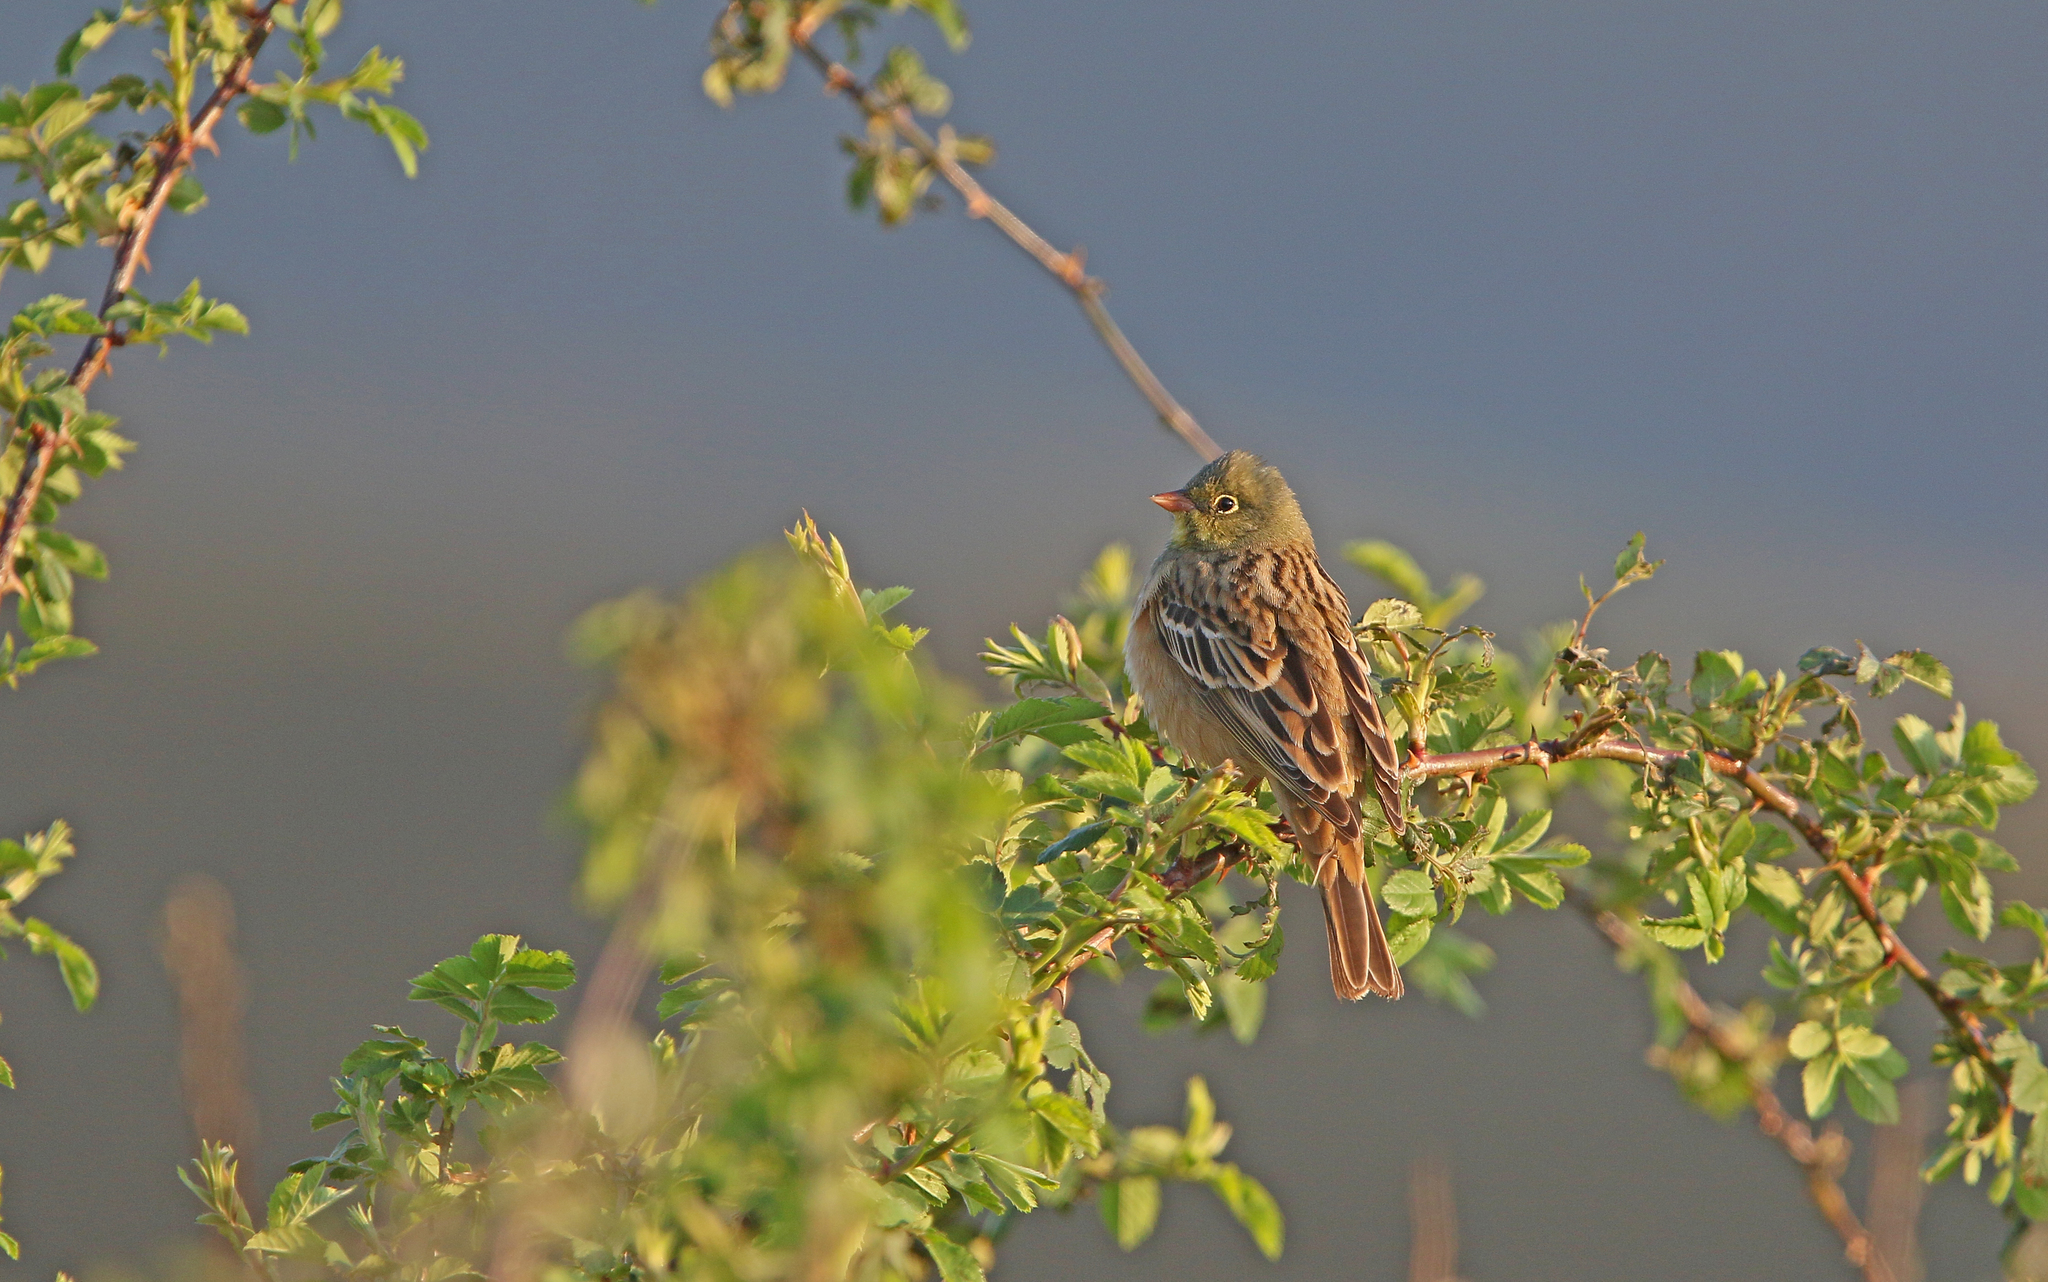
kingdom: Animalia
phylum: Chordata
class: Aves
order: Passeriformes
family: Emberizidae
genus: Emberiza
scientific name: Emberiza hortulana
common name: Ortolan bunting
